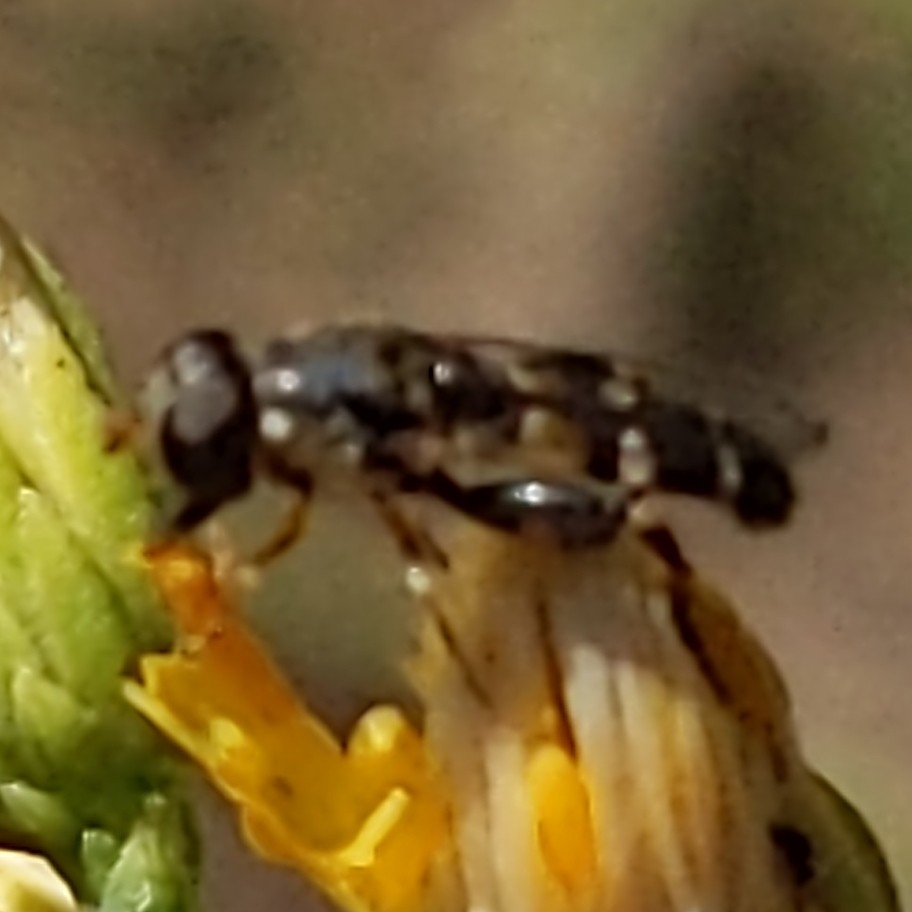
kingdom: Animalia
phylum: Arthropoda
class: Insecta
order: Diptera
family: Syrphidae
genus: Syritta
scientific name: Syritta pipiens
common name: Hover fly
